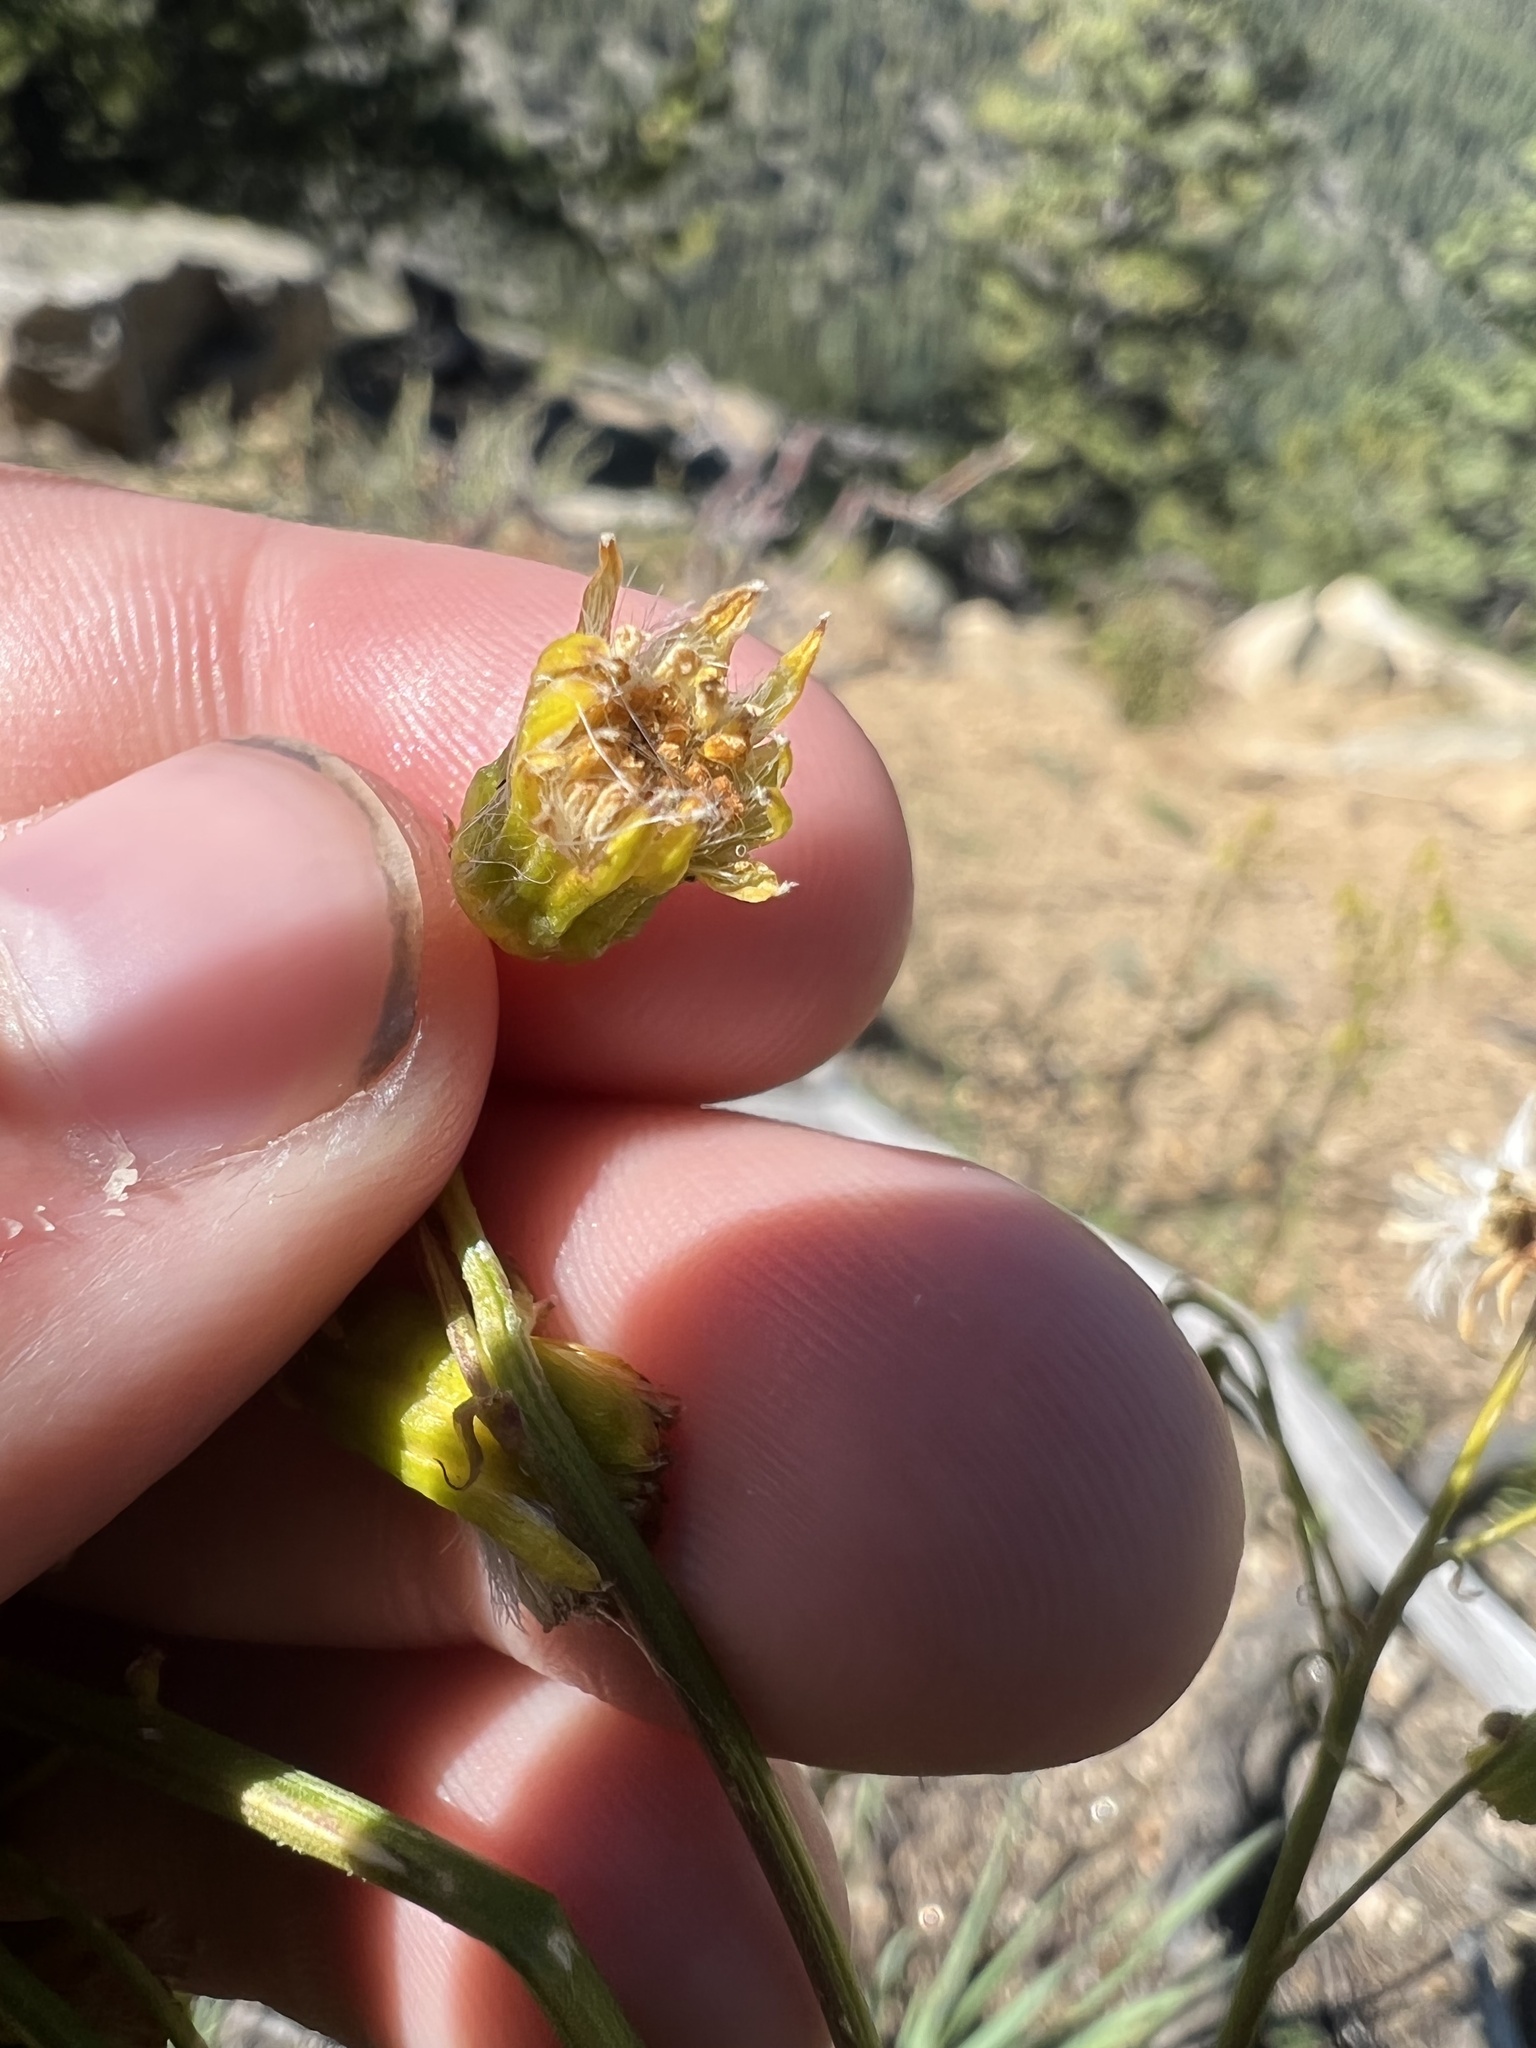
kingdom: Plantae
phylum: Tracheophyta
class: Magnoliopsida
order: Asterales
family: Asteraceae
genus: Senecio
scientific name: Senecio pudicus
